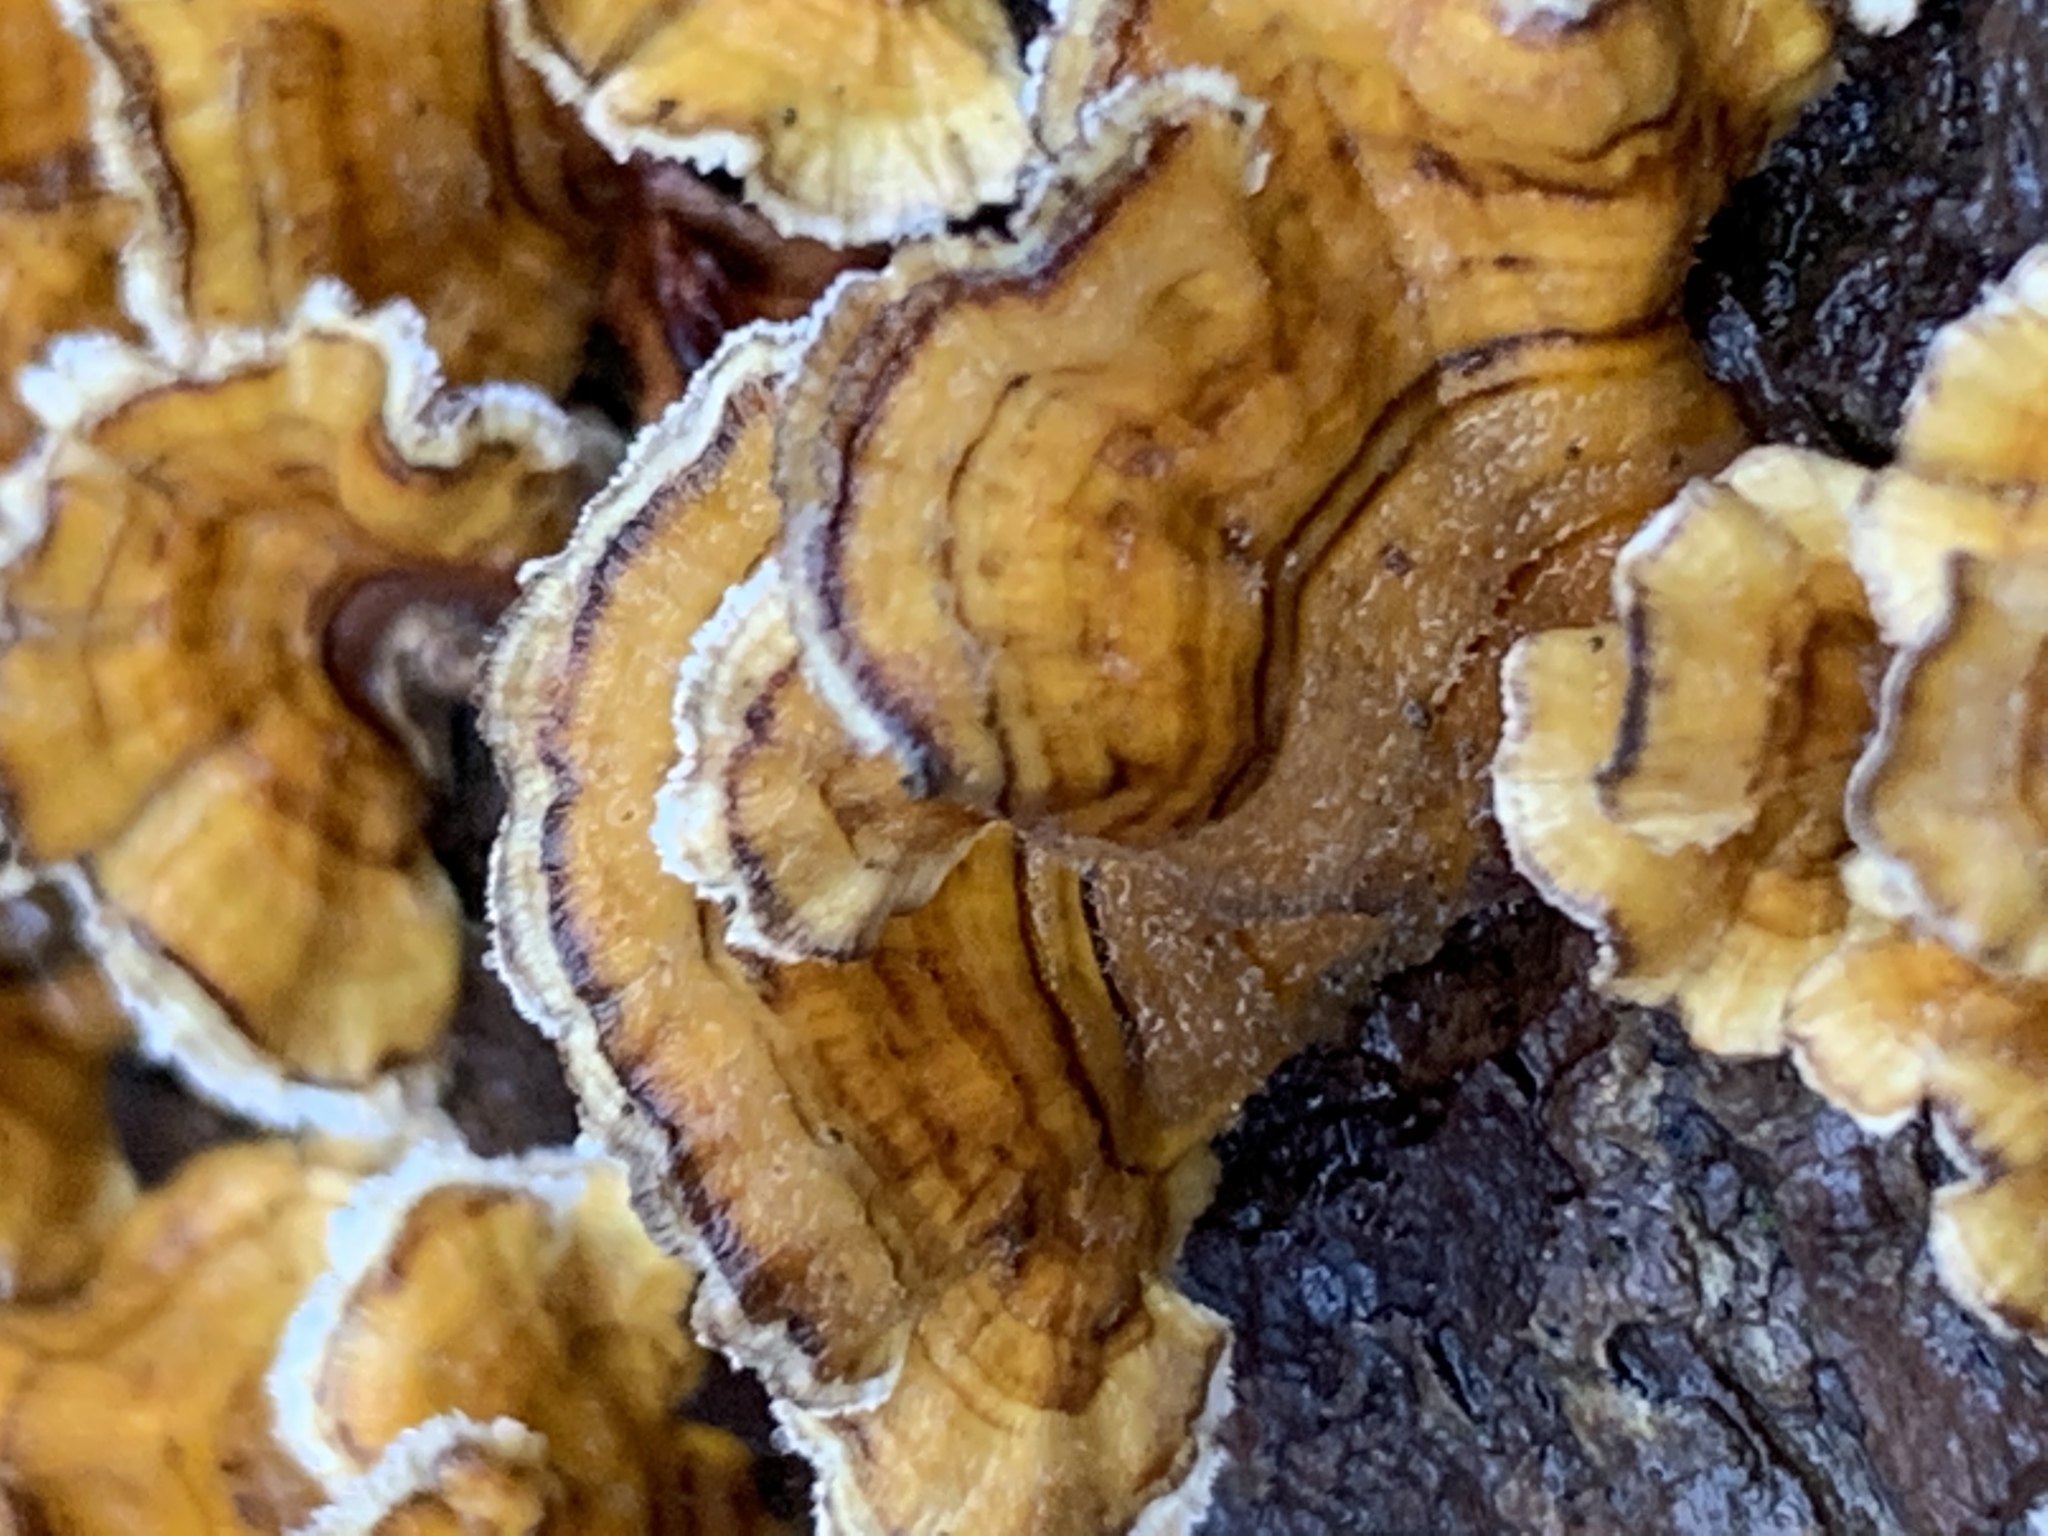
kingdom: Fungi
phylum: Basidiomycota
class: Agaricomycetes
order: Russulales
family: Stereaceae
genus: Stereum
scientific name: Stereum complicatum
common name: Crowded parchment
